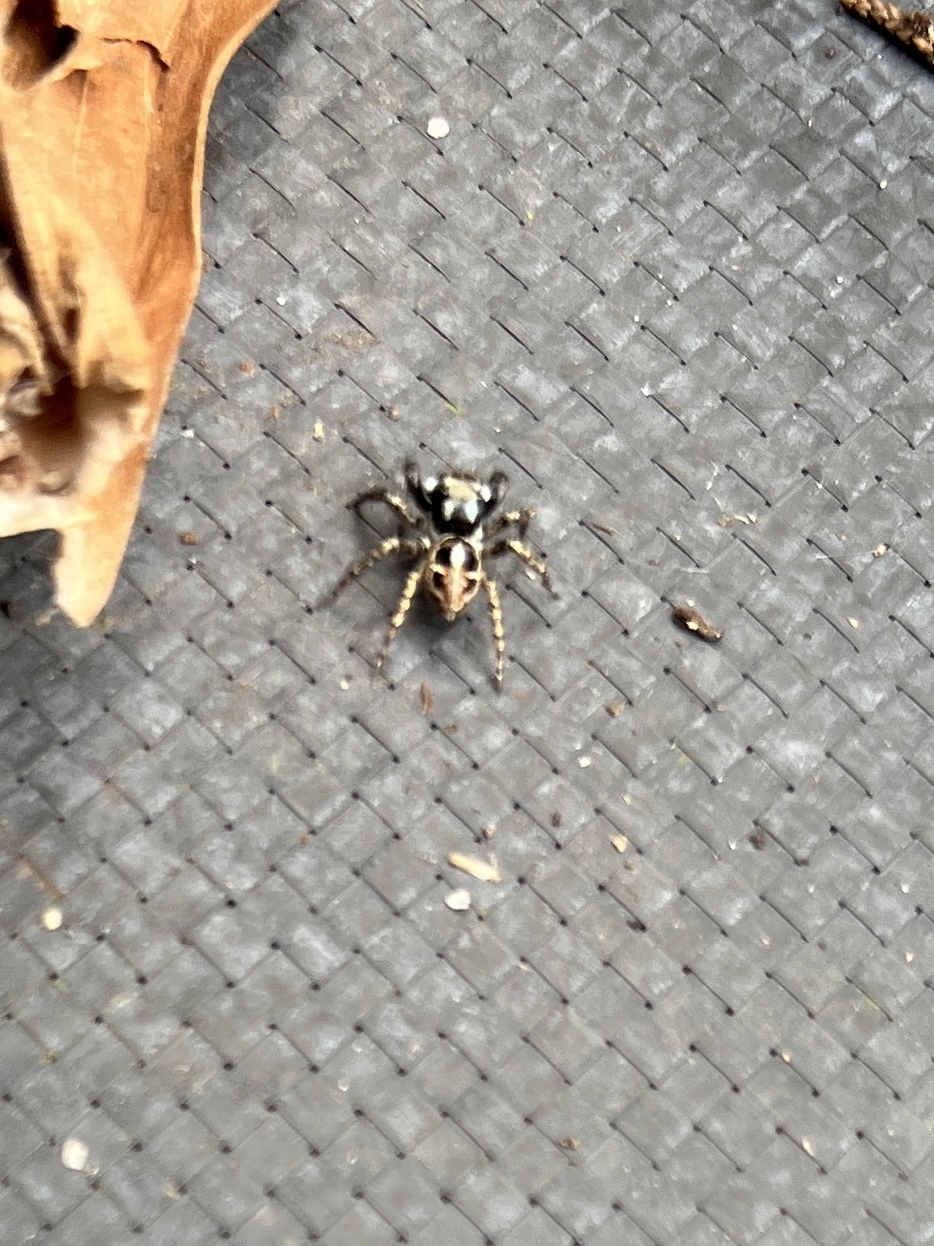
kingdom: Animalia
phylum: Arthropoda
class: Arachnida
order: Araneae
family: Salticidae
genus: Anasaitis
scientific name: Anasaitis canosa
